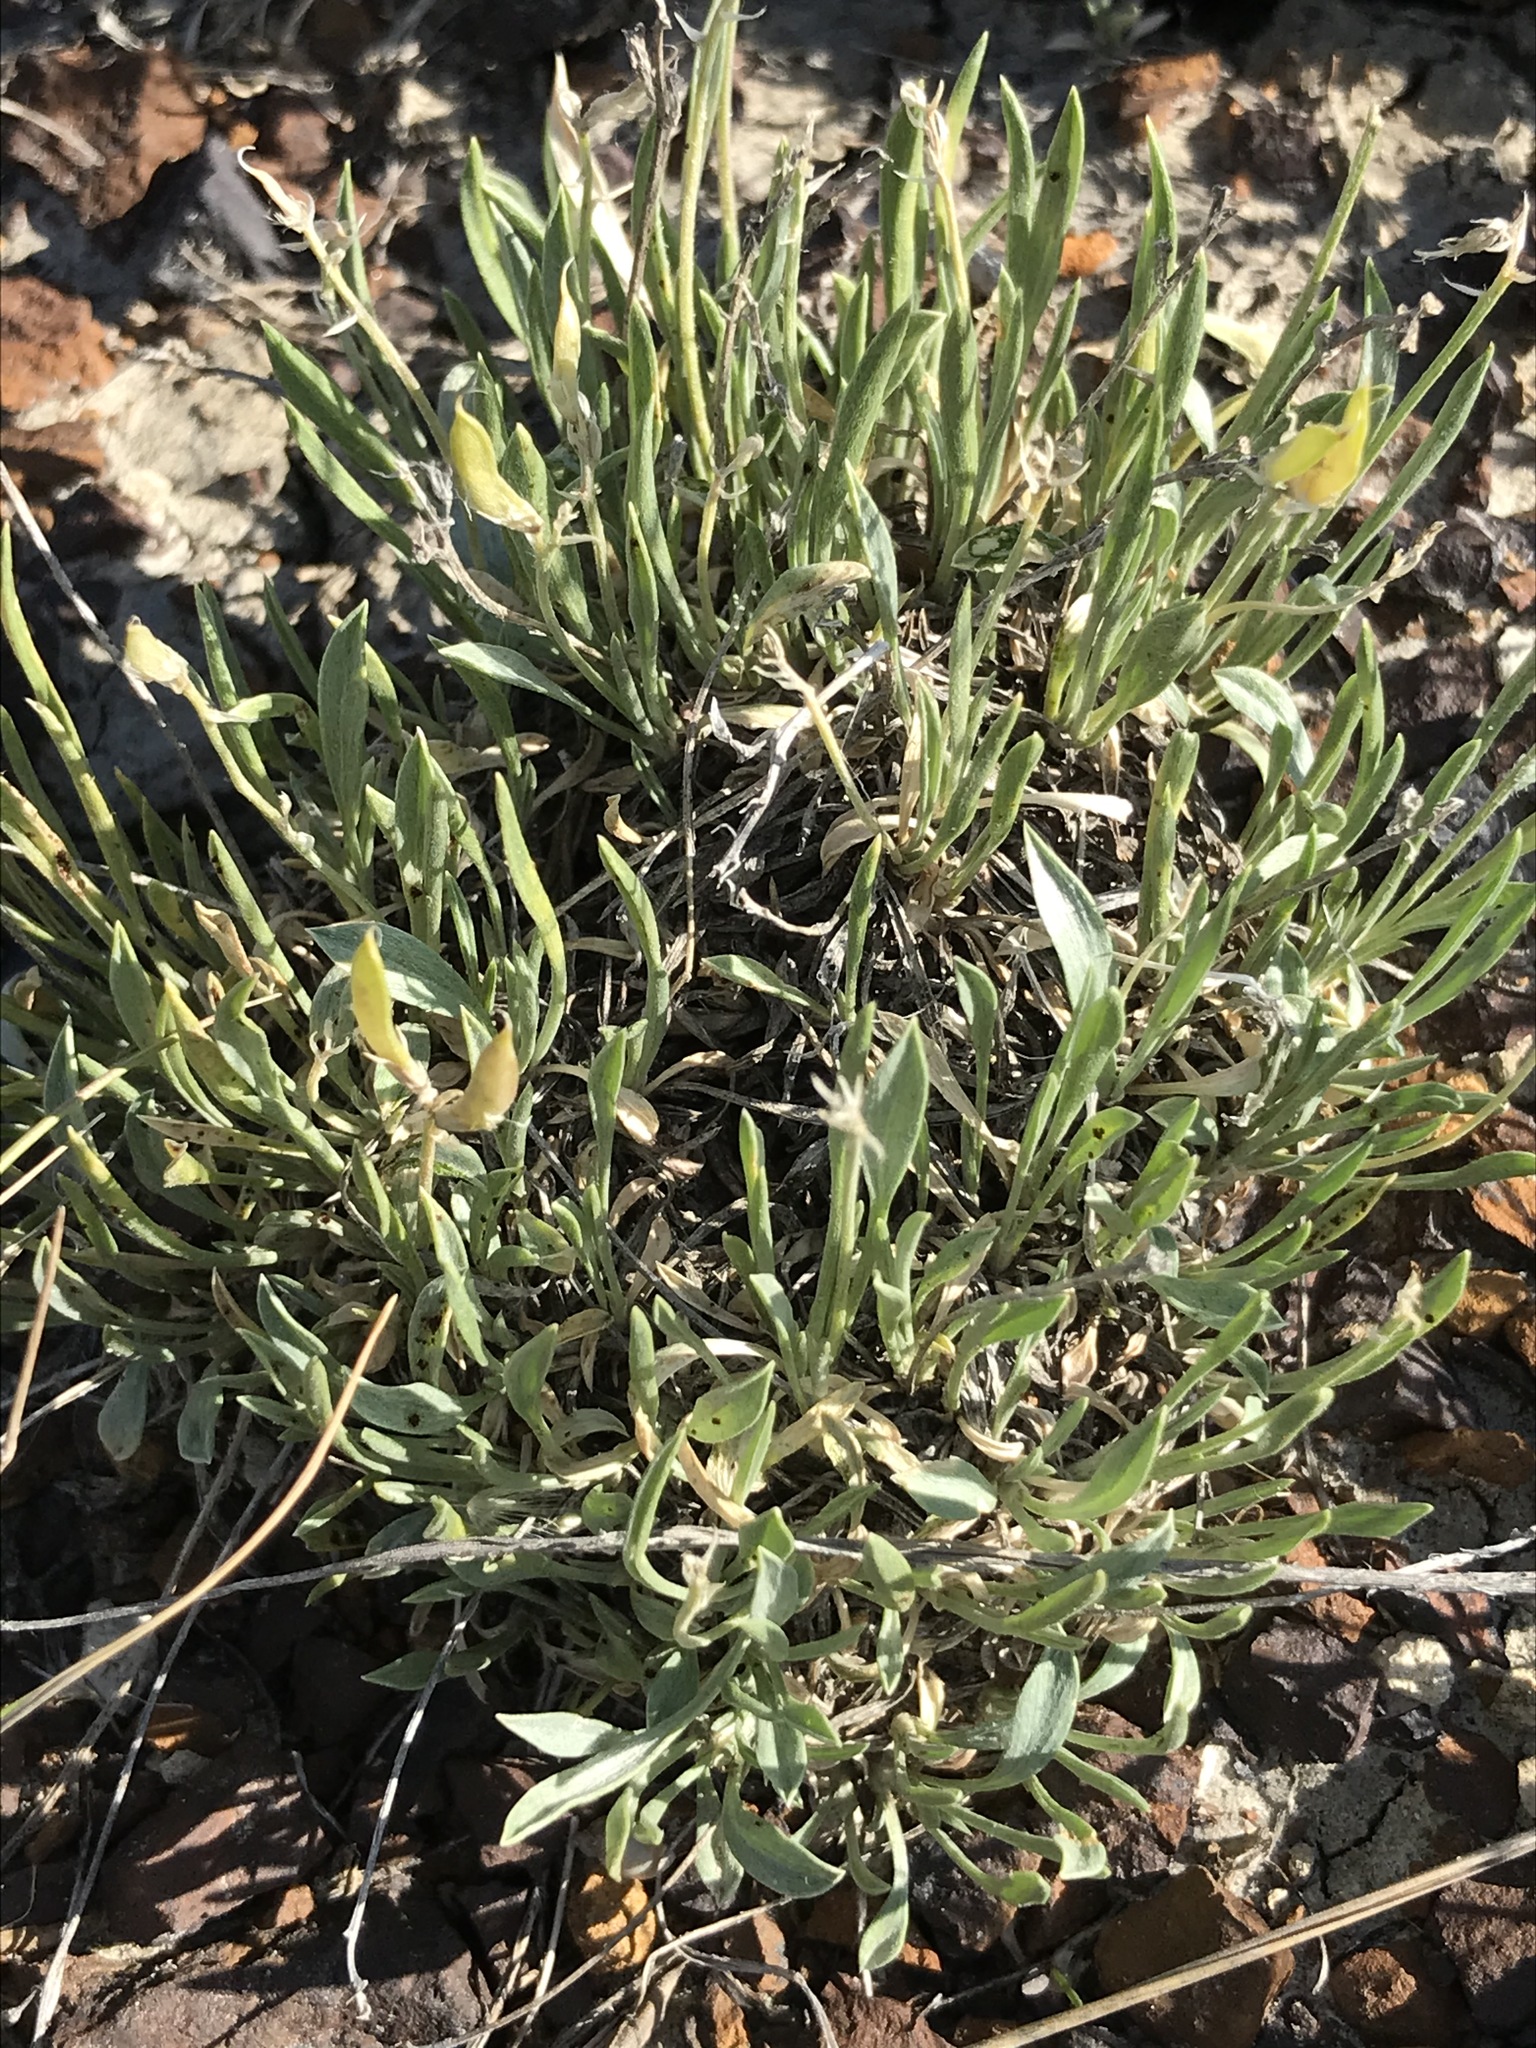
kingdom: Plantae
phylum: Tracheophyta
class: Magnoliopsida
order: Fabales
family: Fabaceae
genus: Astragalus
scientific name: Astragalus spatulatus
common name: Draba milk-vetch
